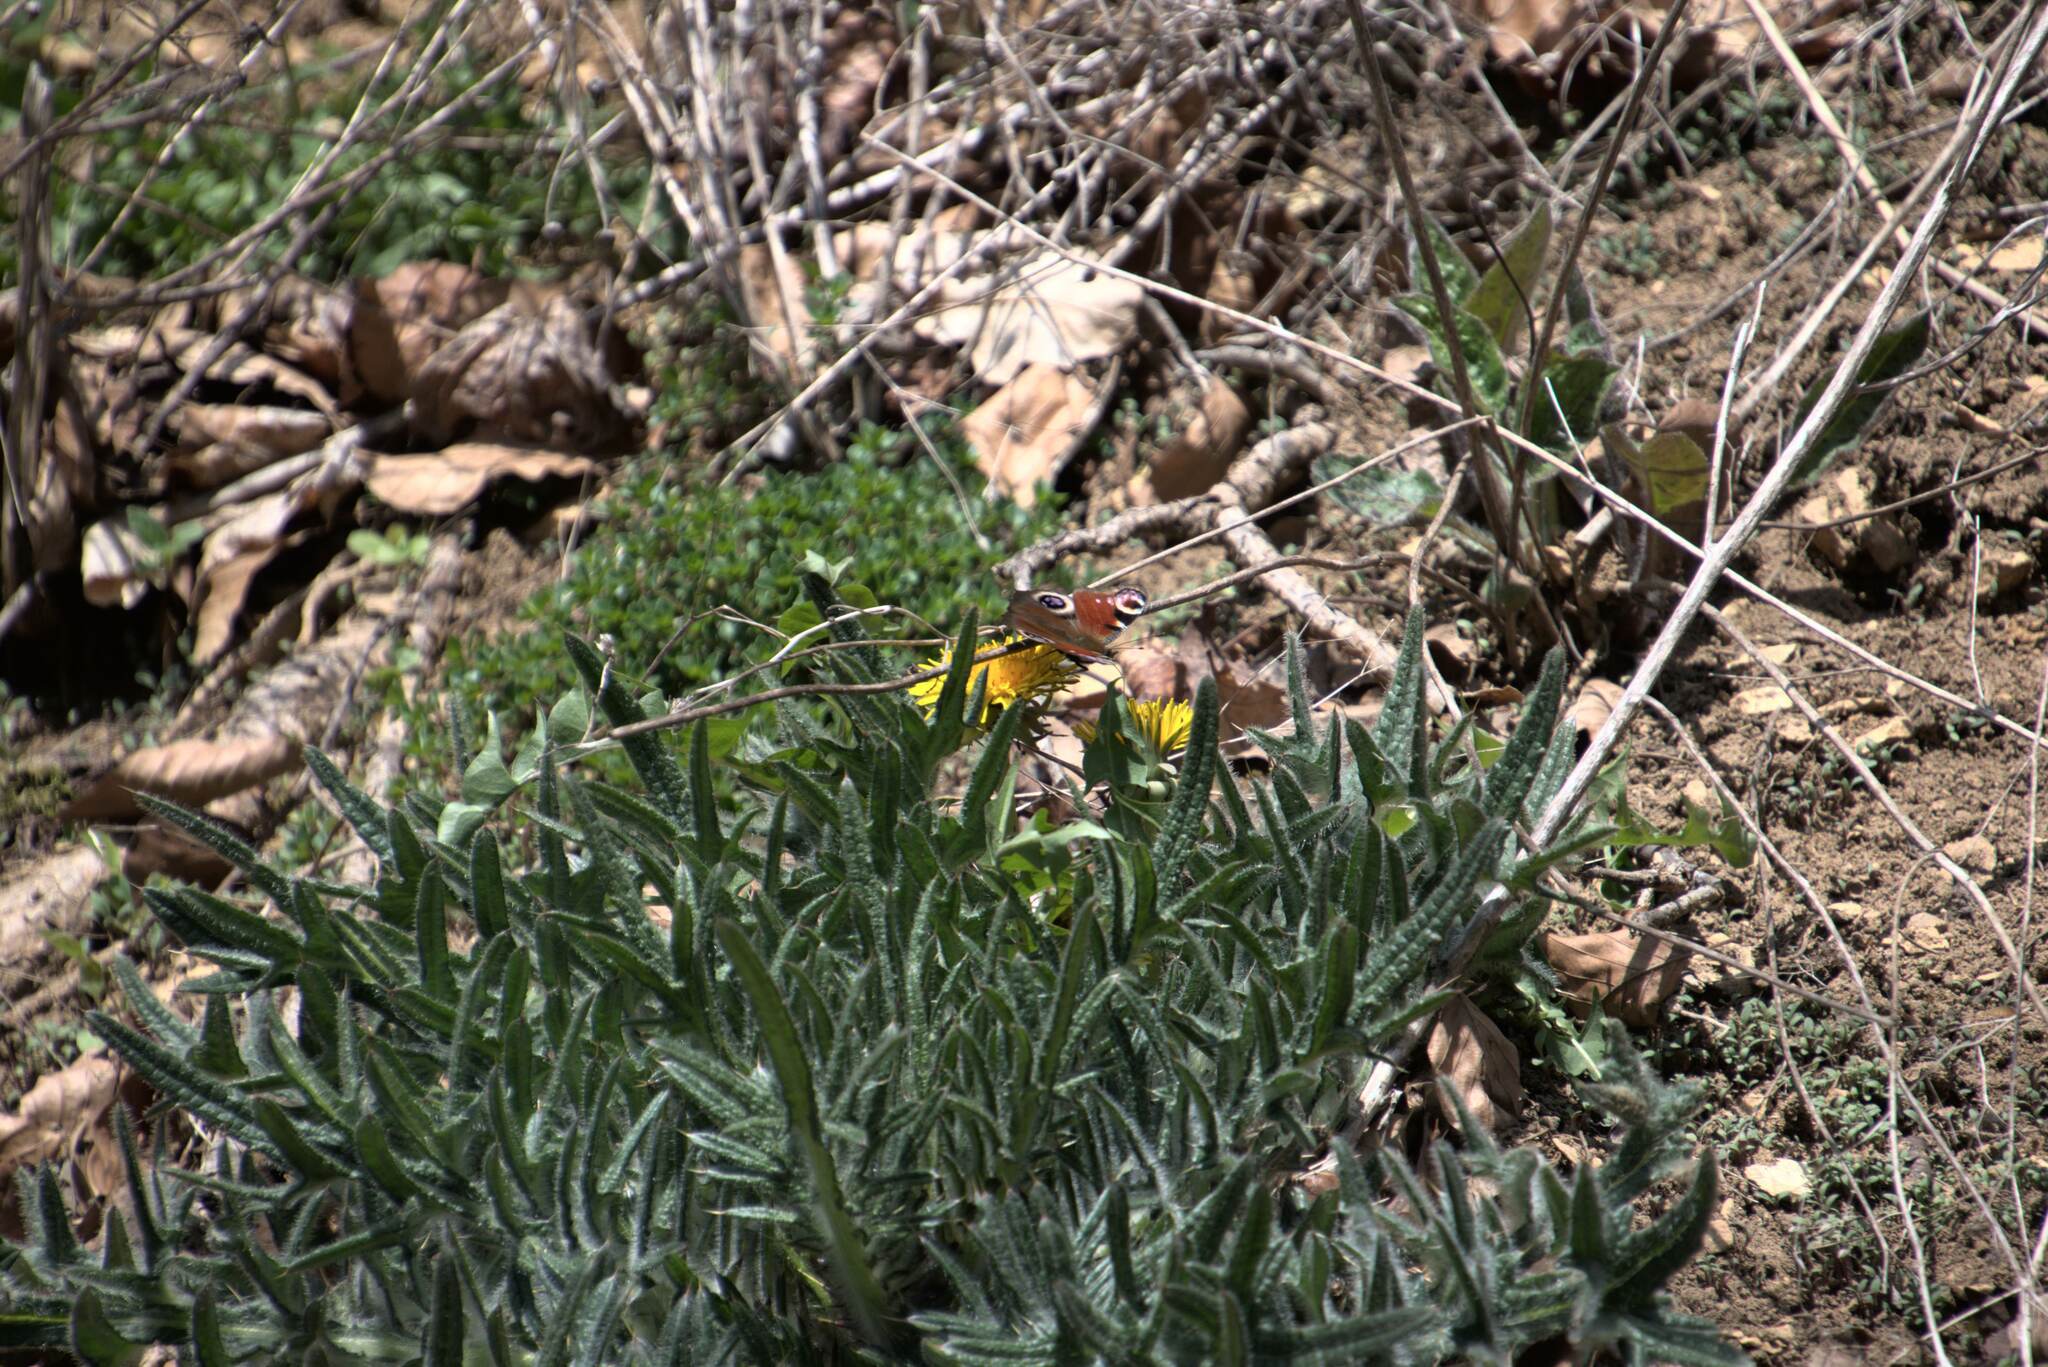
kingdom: Animalia
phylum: Arthropoda
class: Insecta
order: Lepidoptera
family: Nymphalidae
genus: Aglais
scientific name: Aglais io
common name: Peacock
